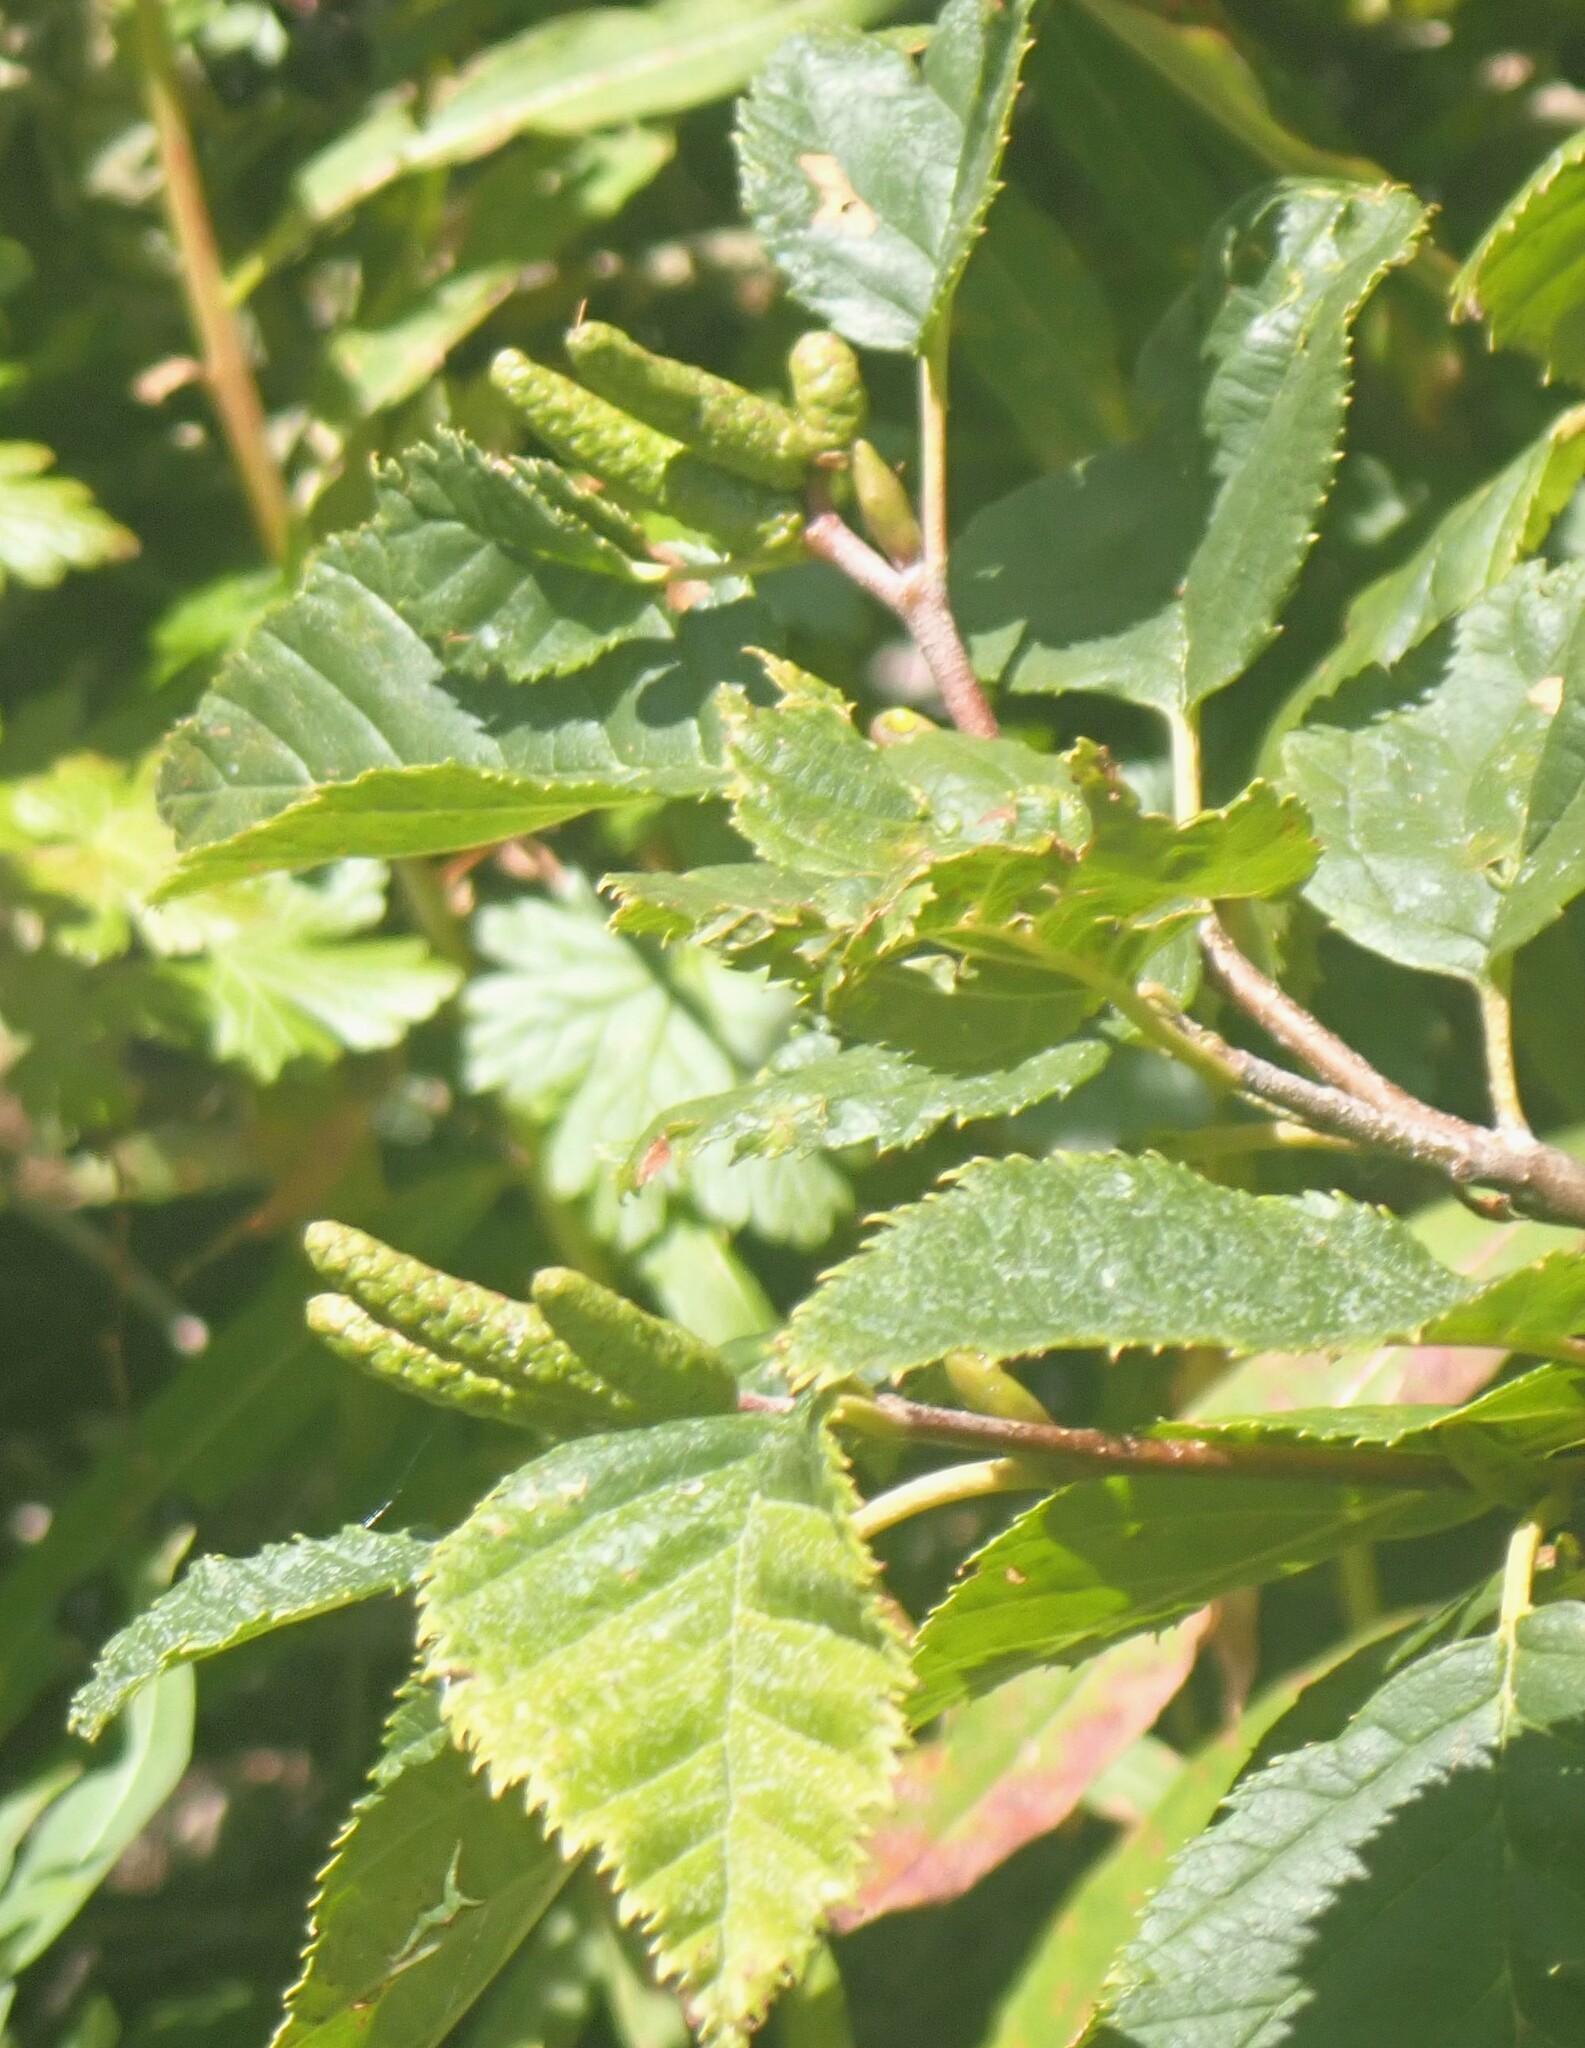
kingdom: Plantae
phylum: Tracheophyta
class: Magnoliopsida
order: Fagales
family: Betulaceae
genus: Alnus
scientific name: Alnus alnobetula
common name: Green alder
